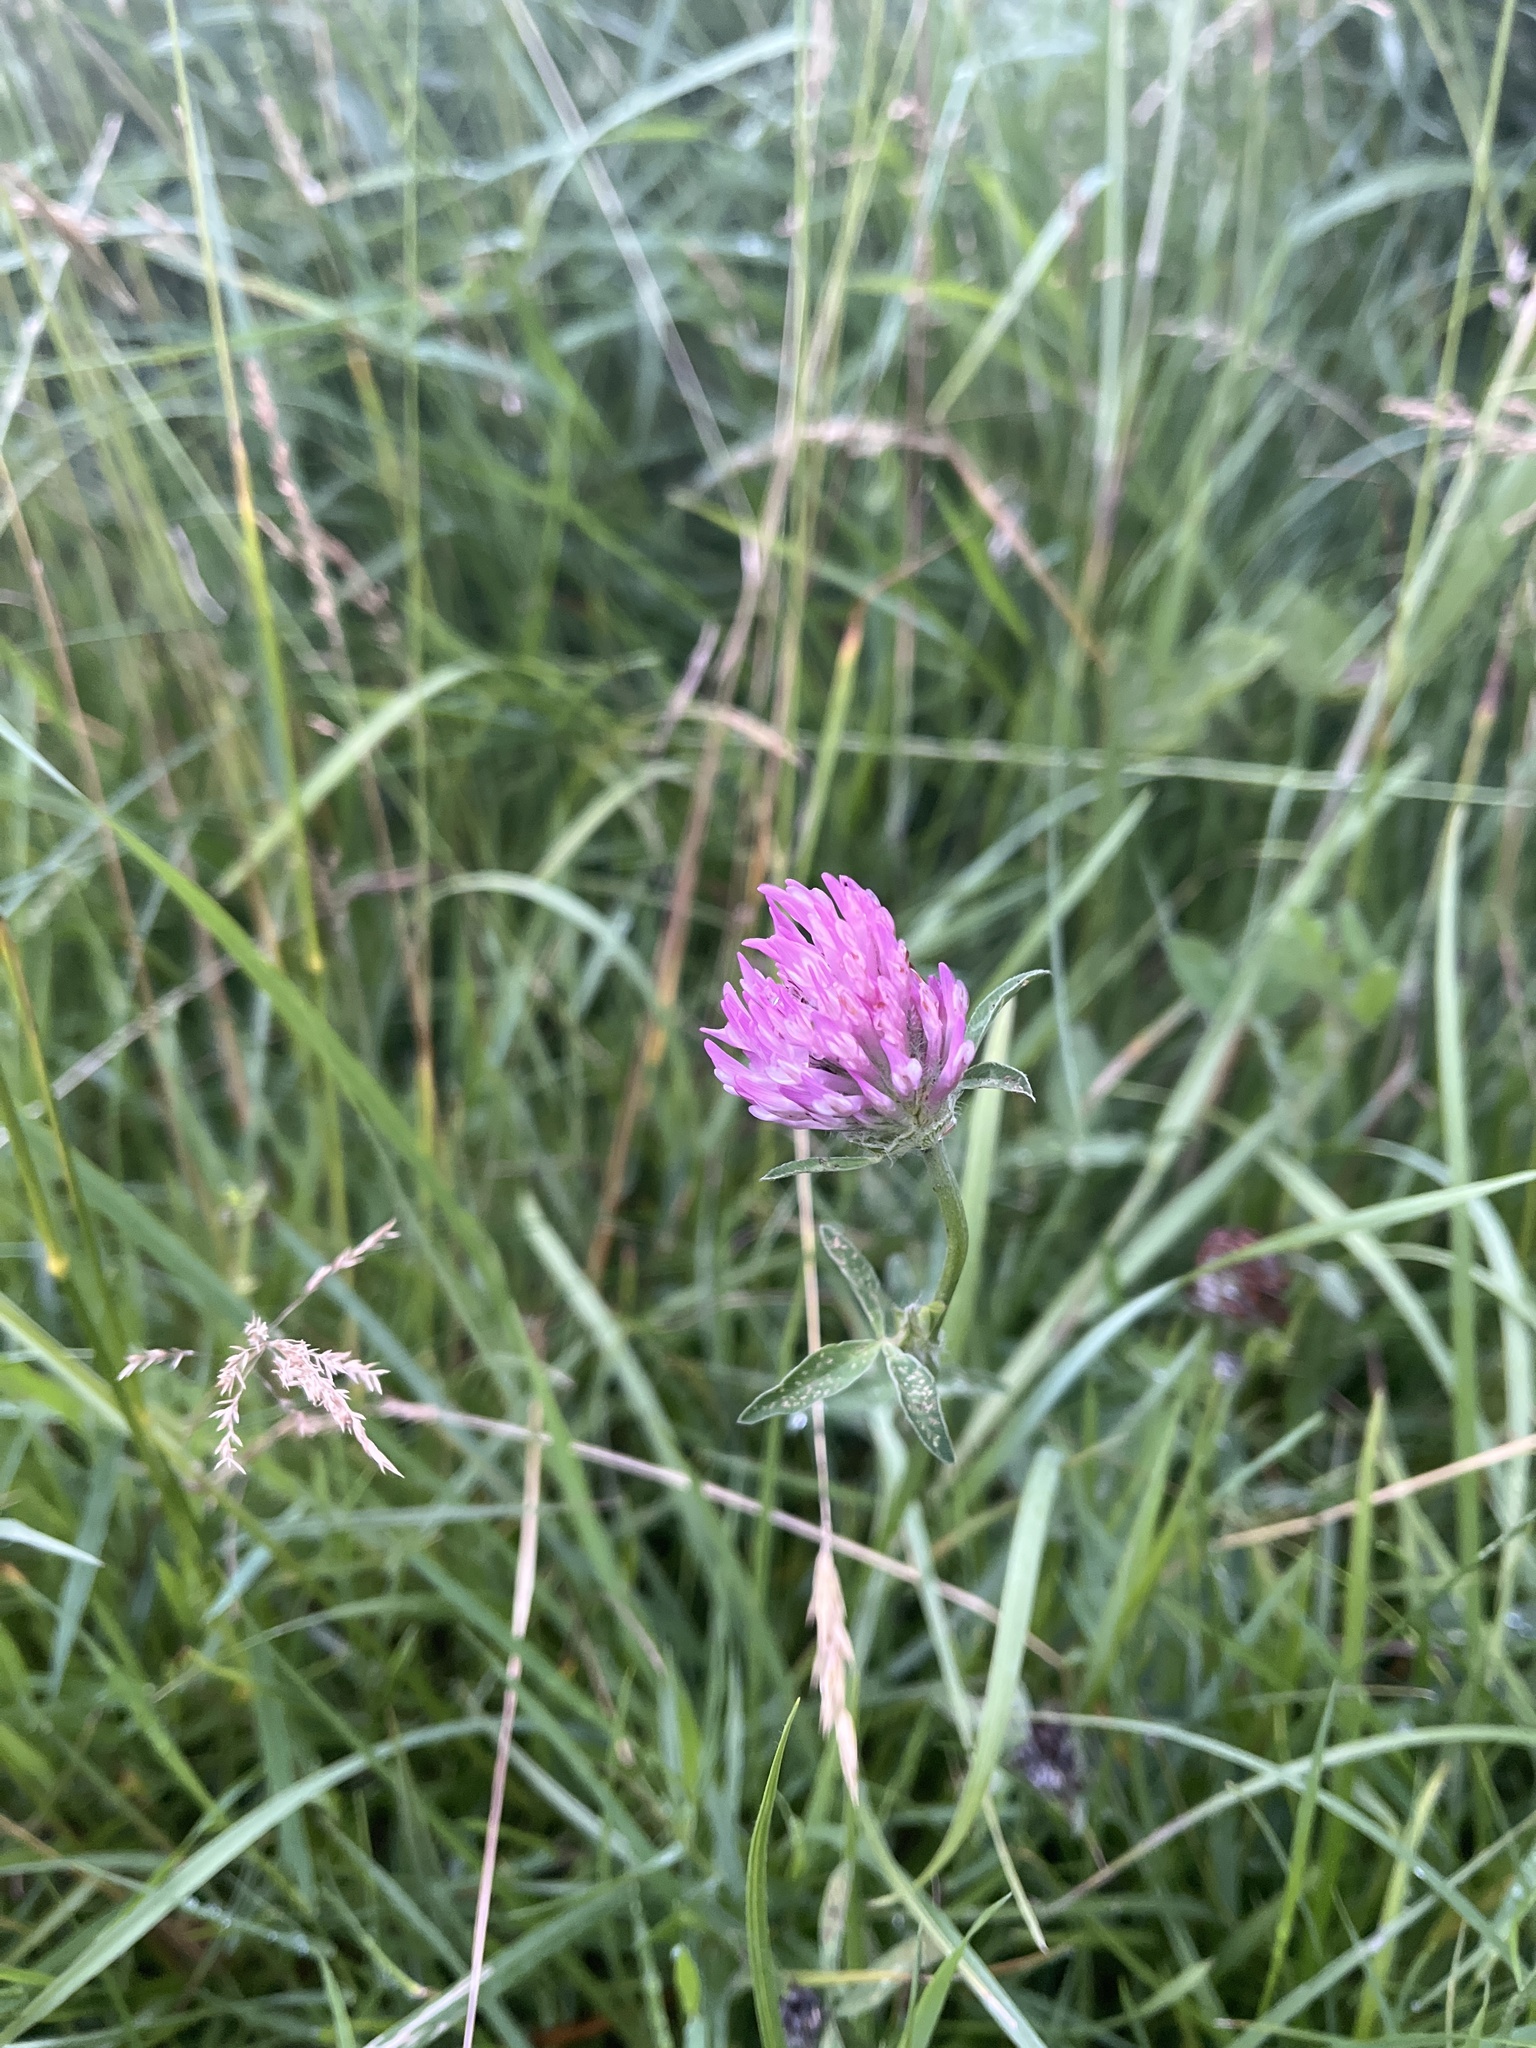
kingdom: Plantae
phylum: Tracheophyta
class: Magnoliopsida
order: Fabales
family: Fabaceae
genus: Trifolium
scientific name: Trifolium pratense
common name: Red clover
